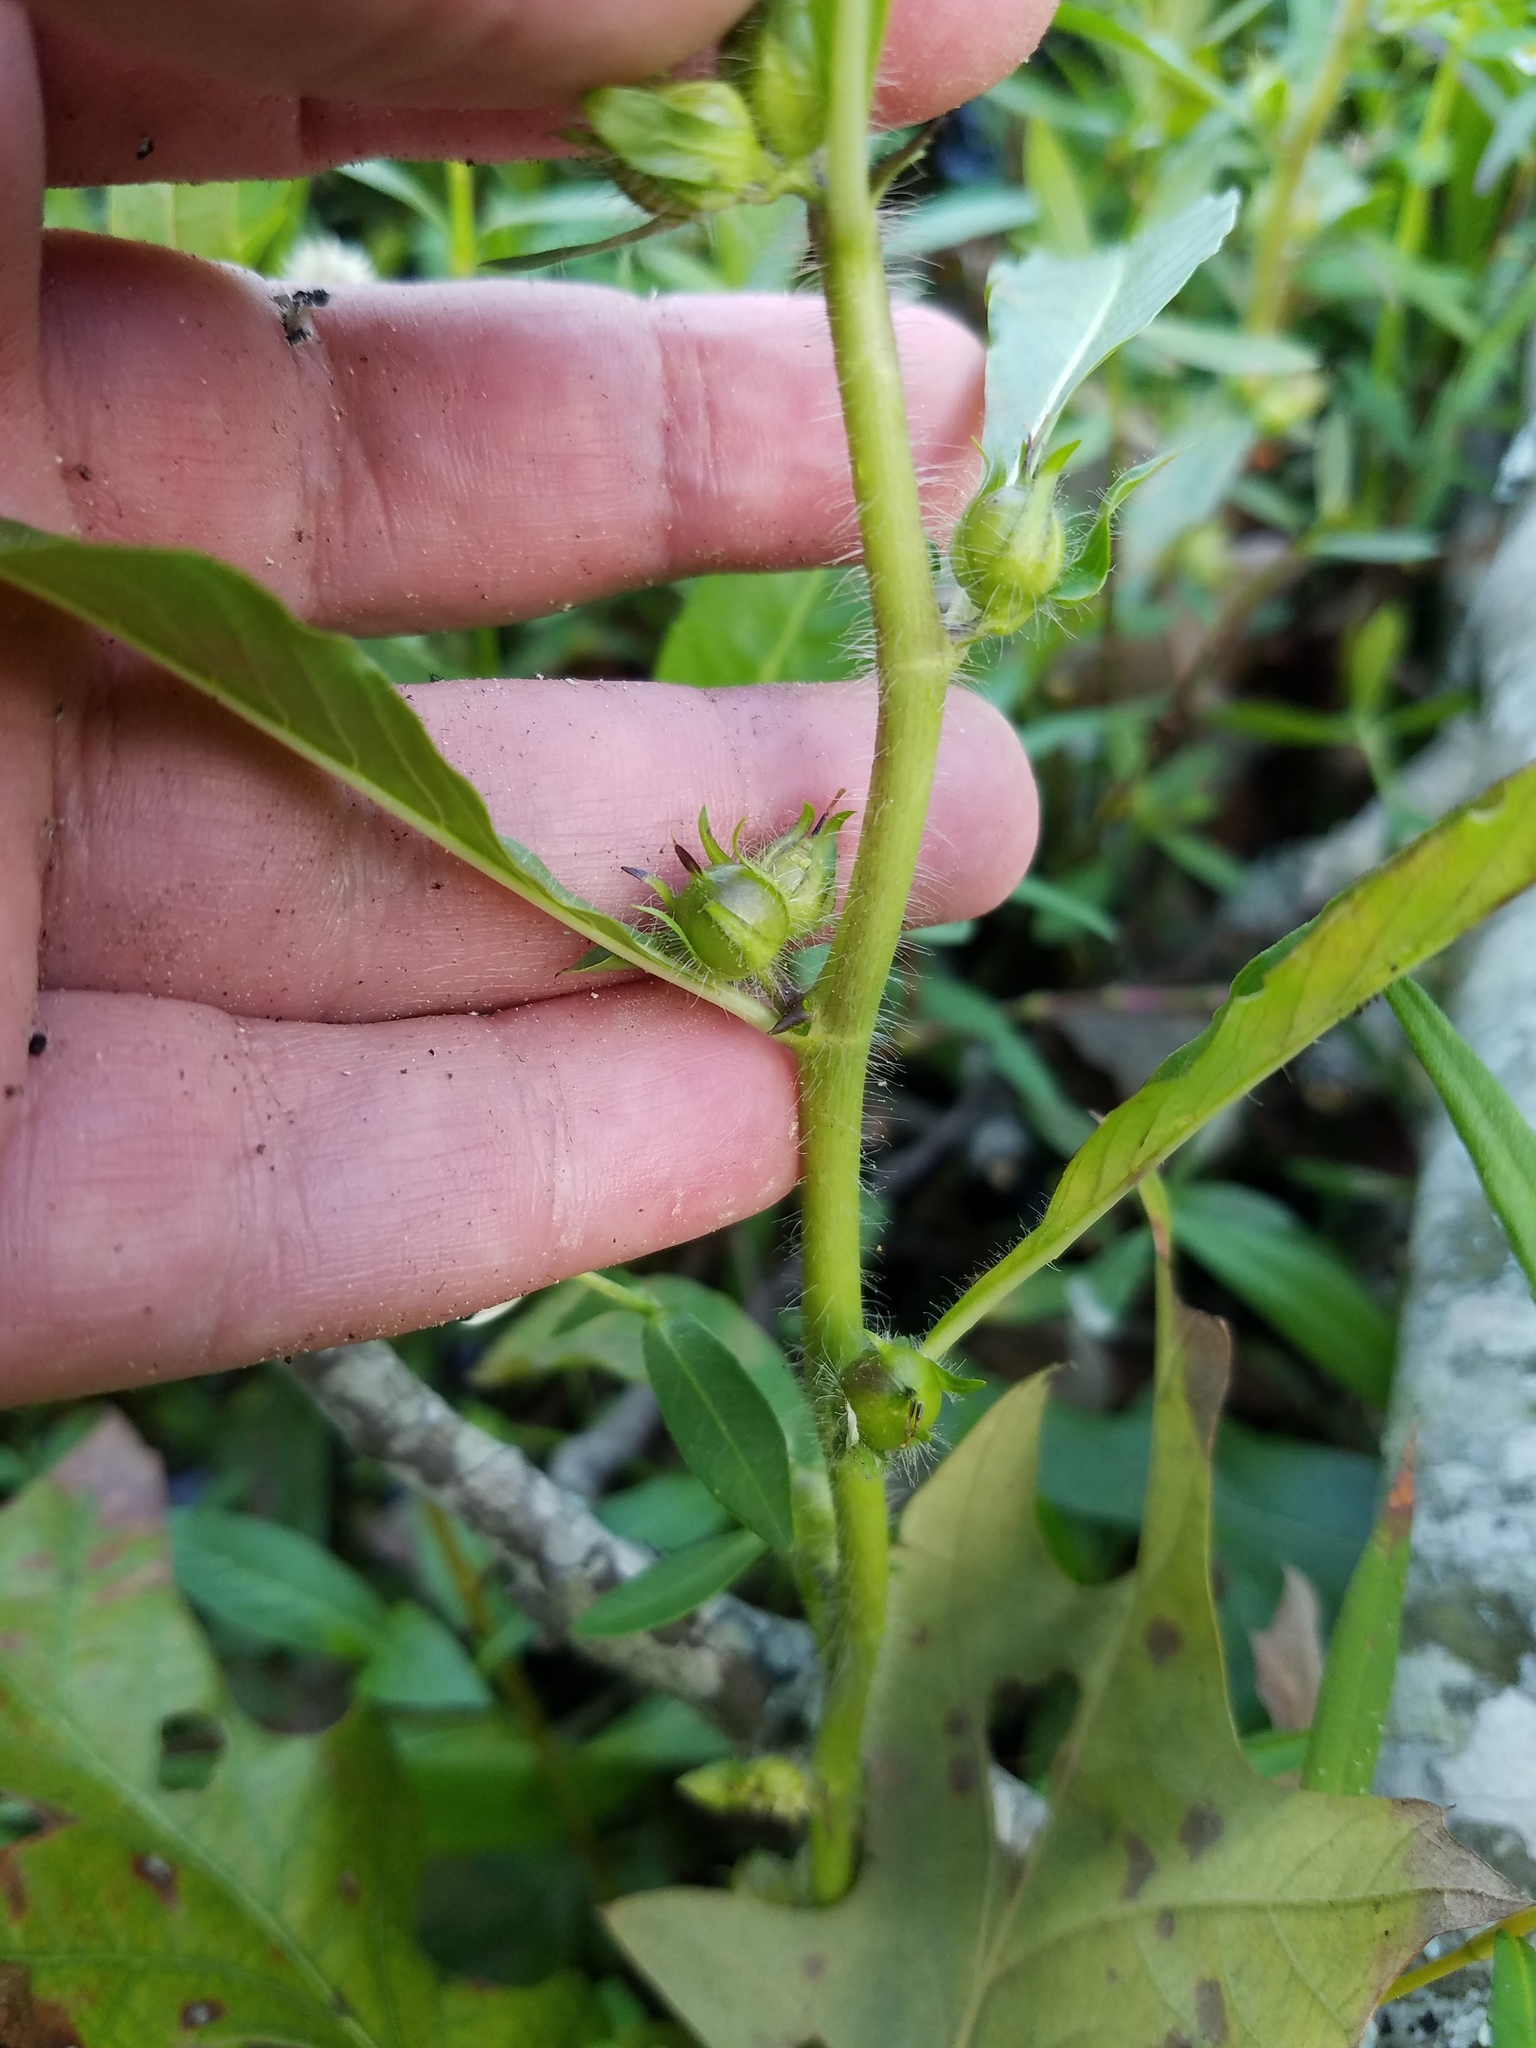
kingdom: Plantae
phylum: Tracheophyta
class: Magnoliopsida
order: Solanales
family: Hydroleaceae
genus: Hydrolea
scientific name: Hydrolea quadrivalvis
